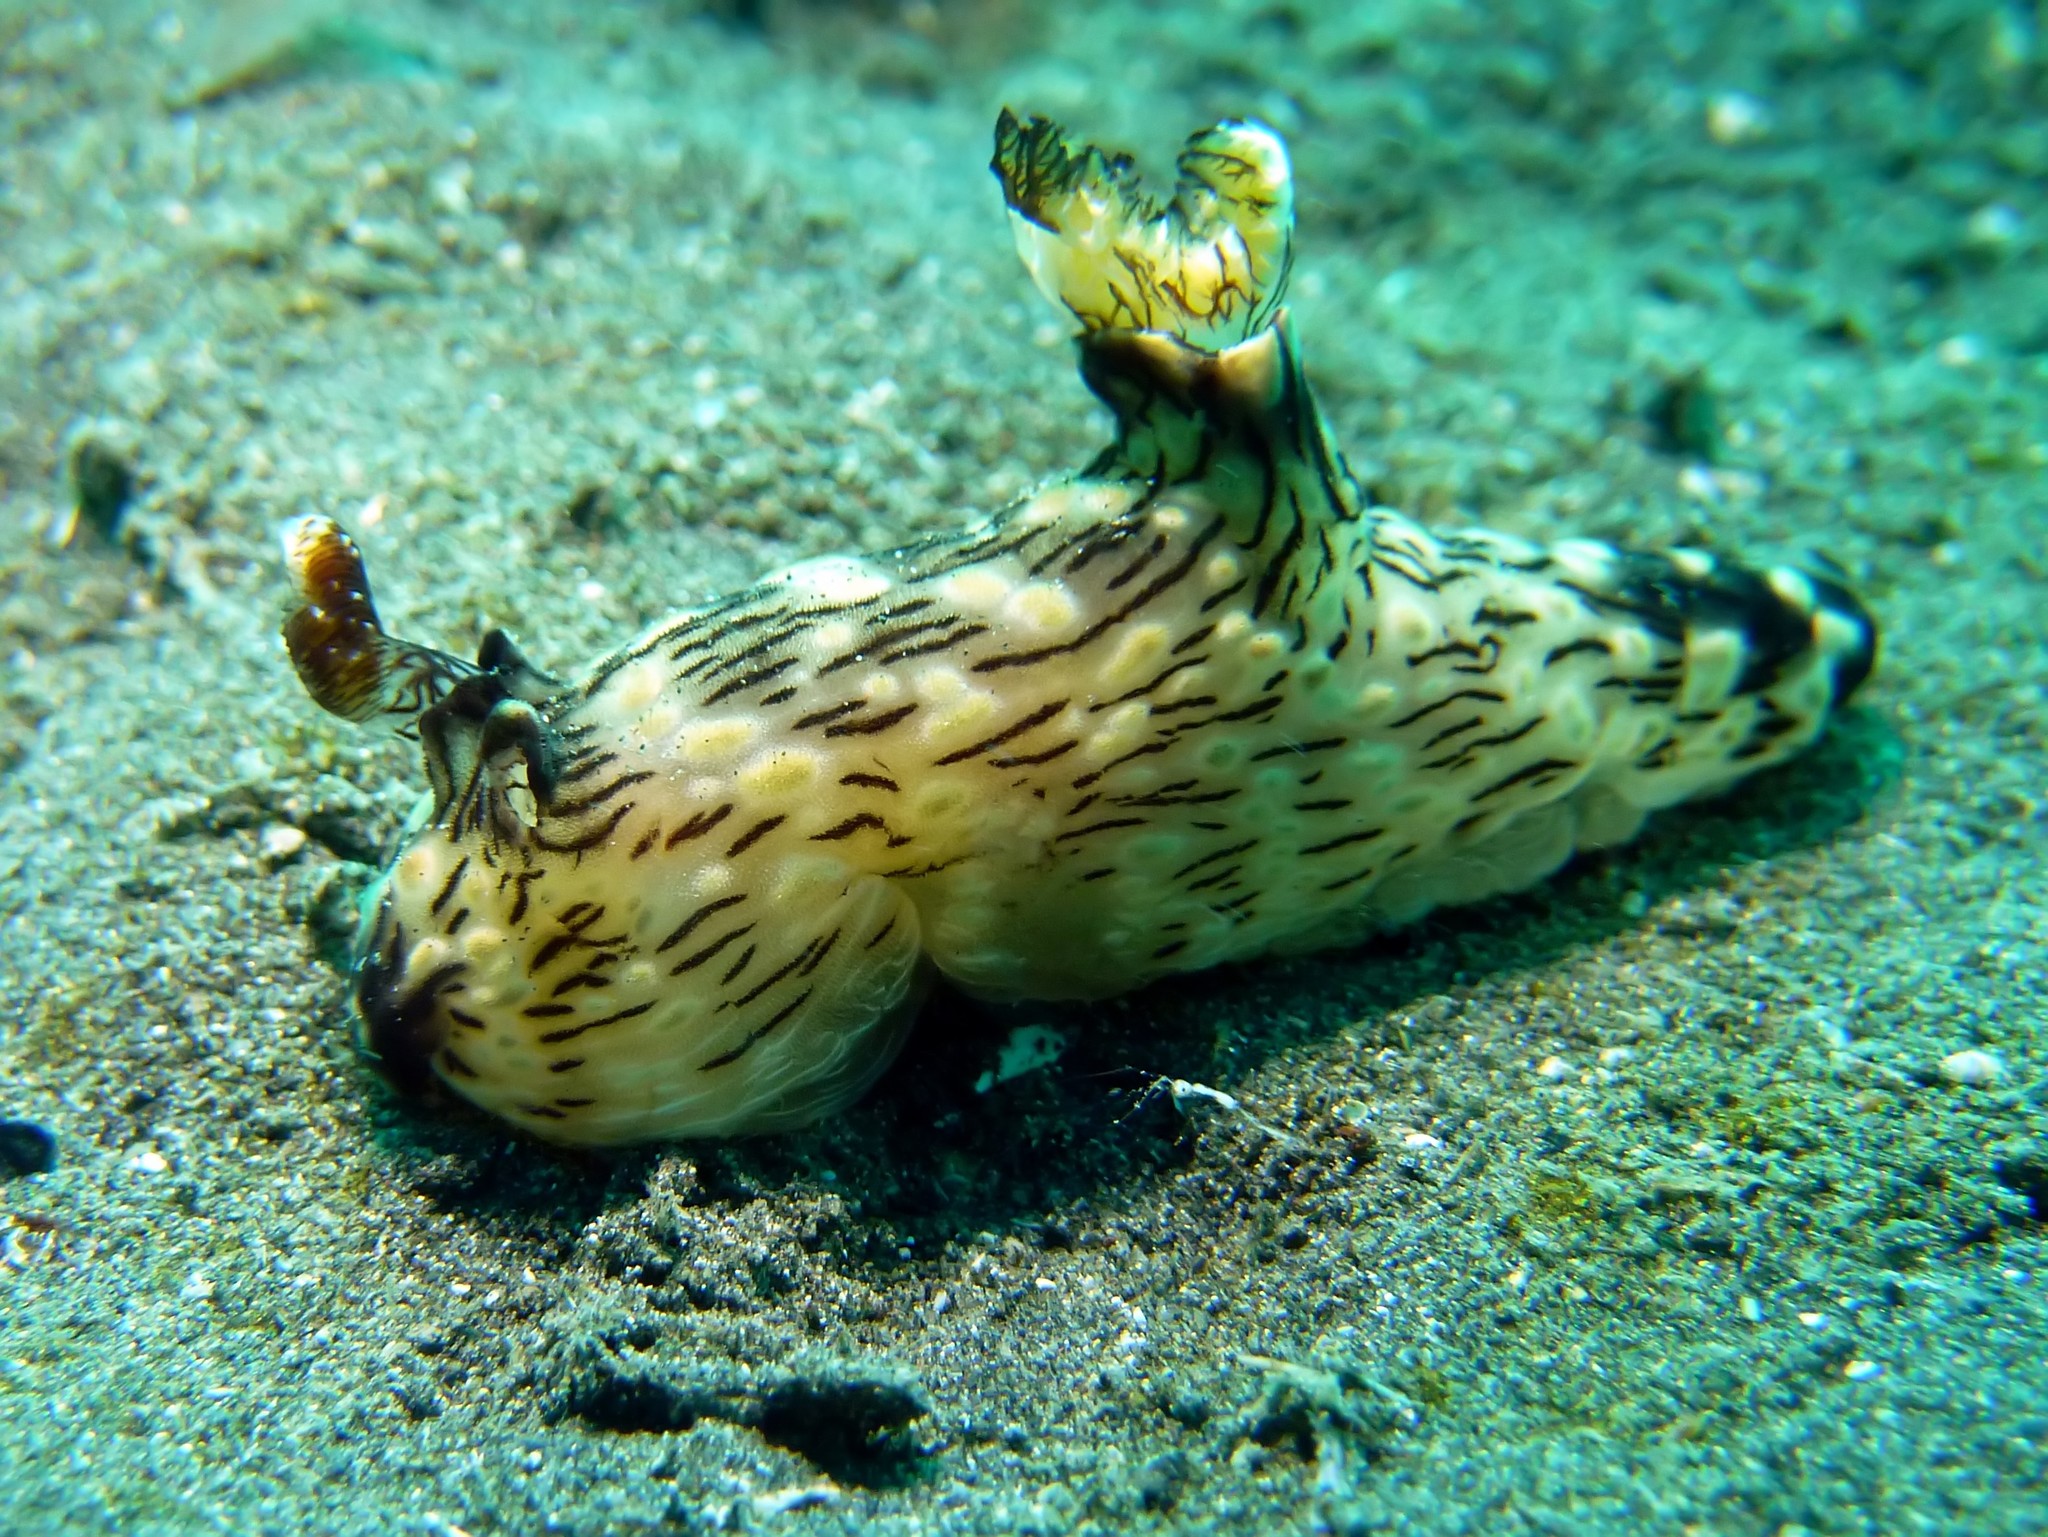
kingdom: Animalia
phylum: Mollusca
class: Gastropoda
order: Nudibranchia
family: Discodorididae
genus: Jorunna
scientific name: Jorunna rubescens
